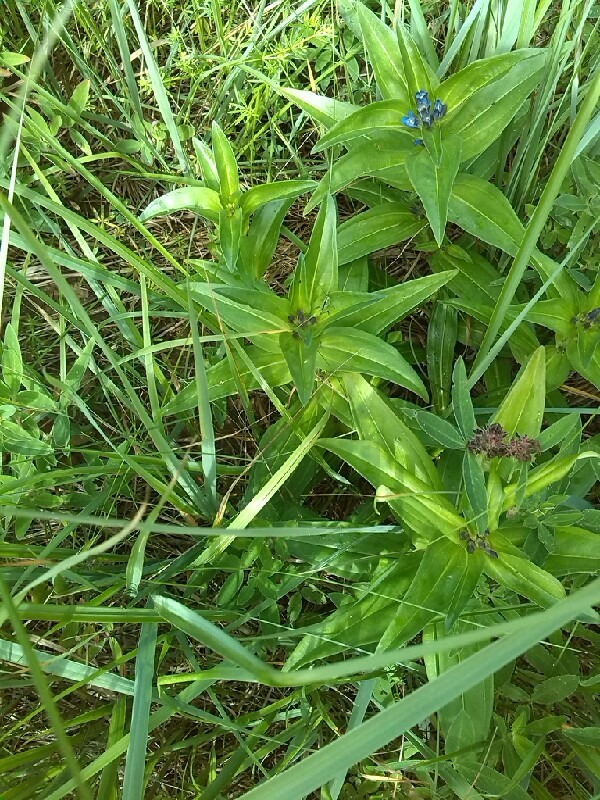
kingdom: Animalia
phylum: Arthropoda
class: Insecta
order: Orthoptera
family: Tettigoniidae
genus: Conocephalus
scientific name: Conocephalus
